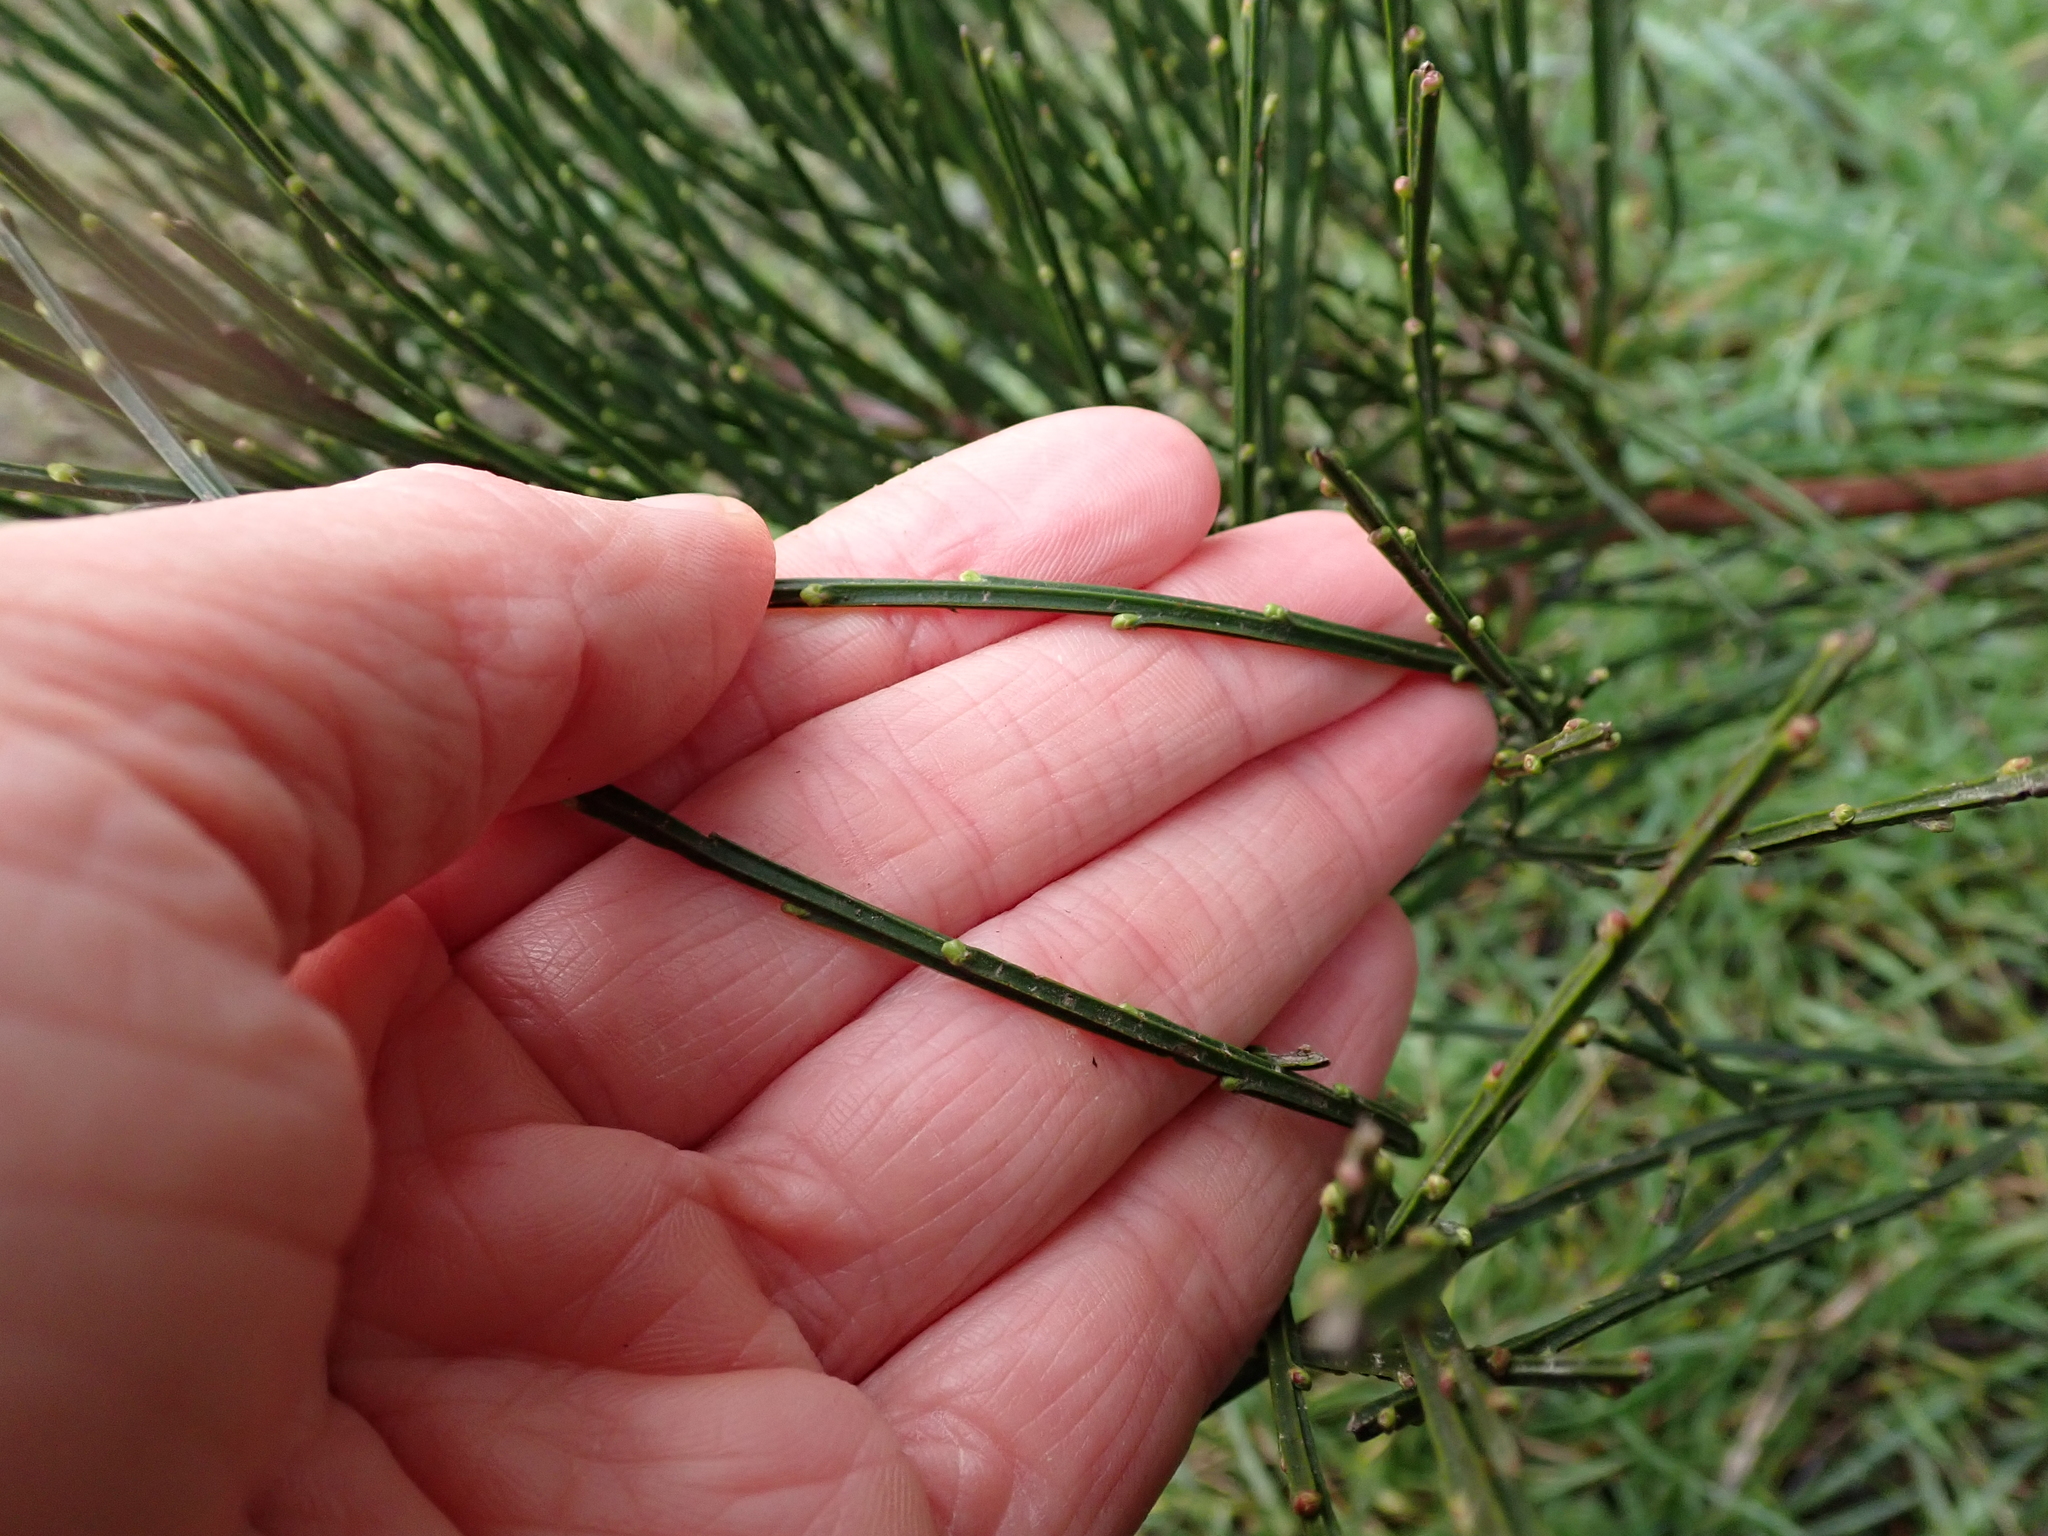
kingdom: Plantae
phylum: Tracheophyta
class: Magnoliopsida
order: Fabales
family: Fabaceae
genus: Cytisus
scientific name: Cytisus scoparius
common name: Scotch broom
